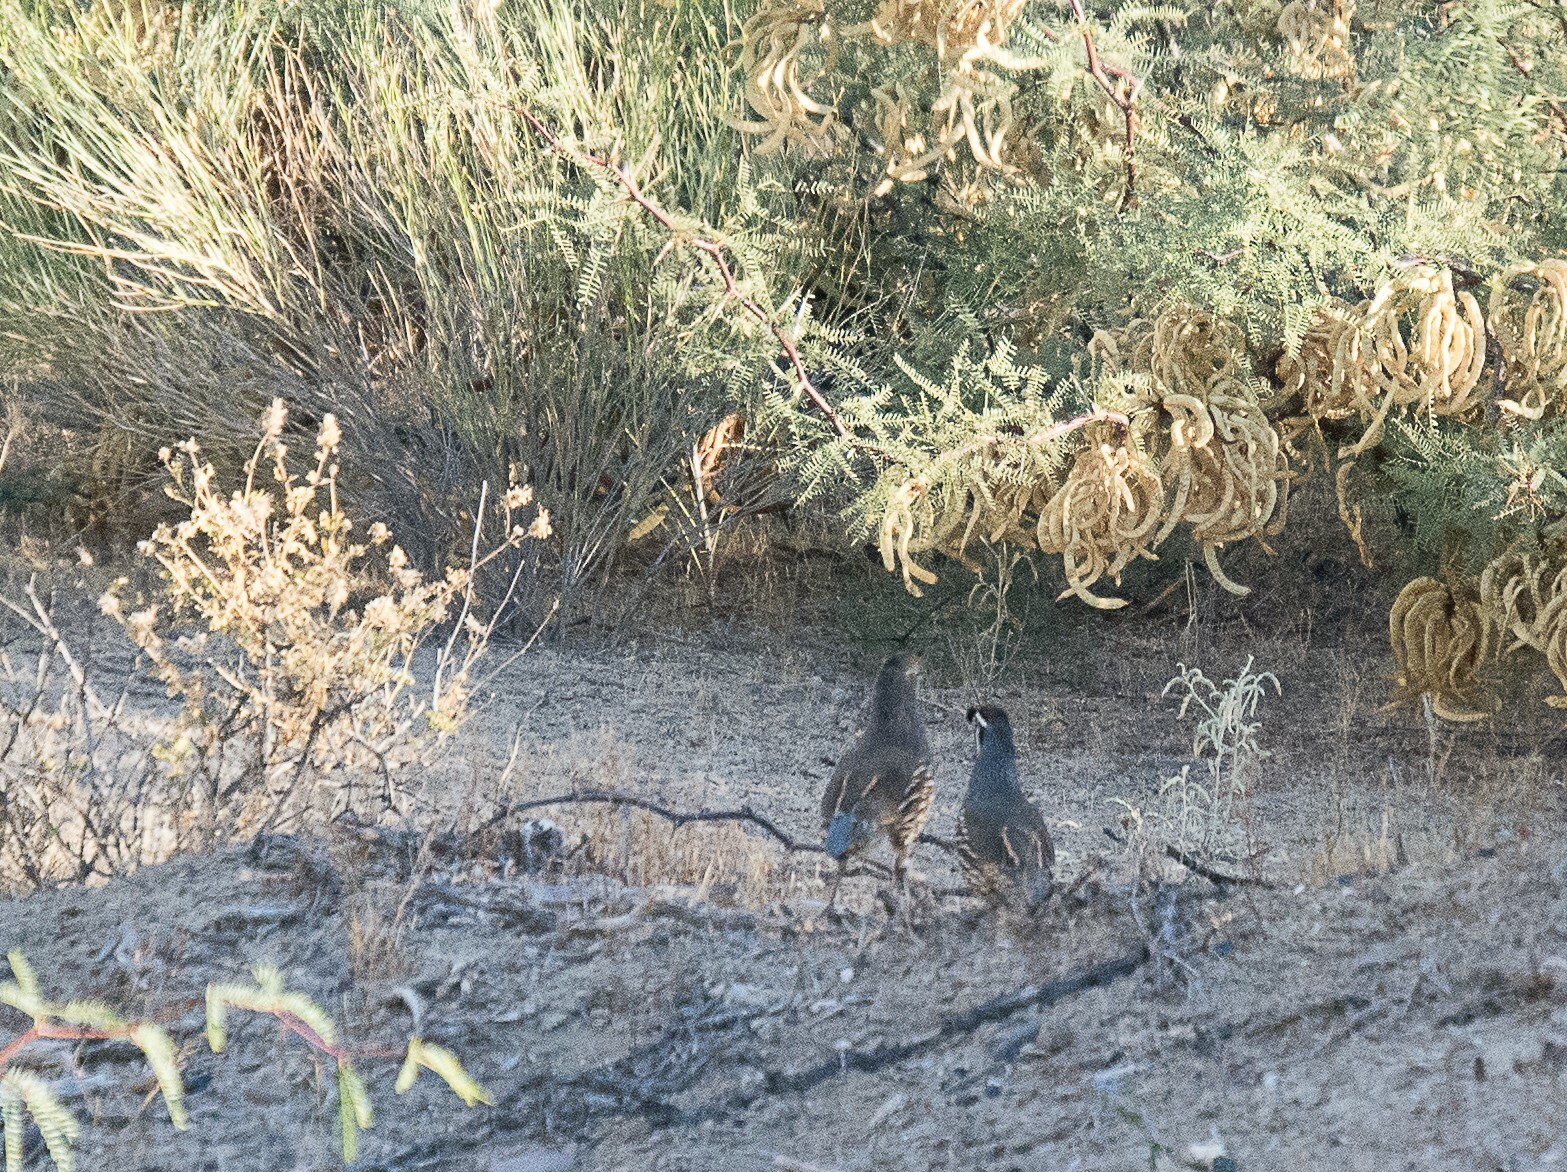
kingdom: Animalia
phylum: Chordata
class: Aves
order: Galliformes
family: Odontophoridae
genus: Callipepla
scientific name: Callipepla californica
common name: California quail
